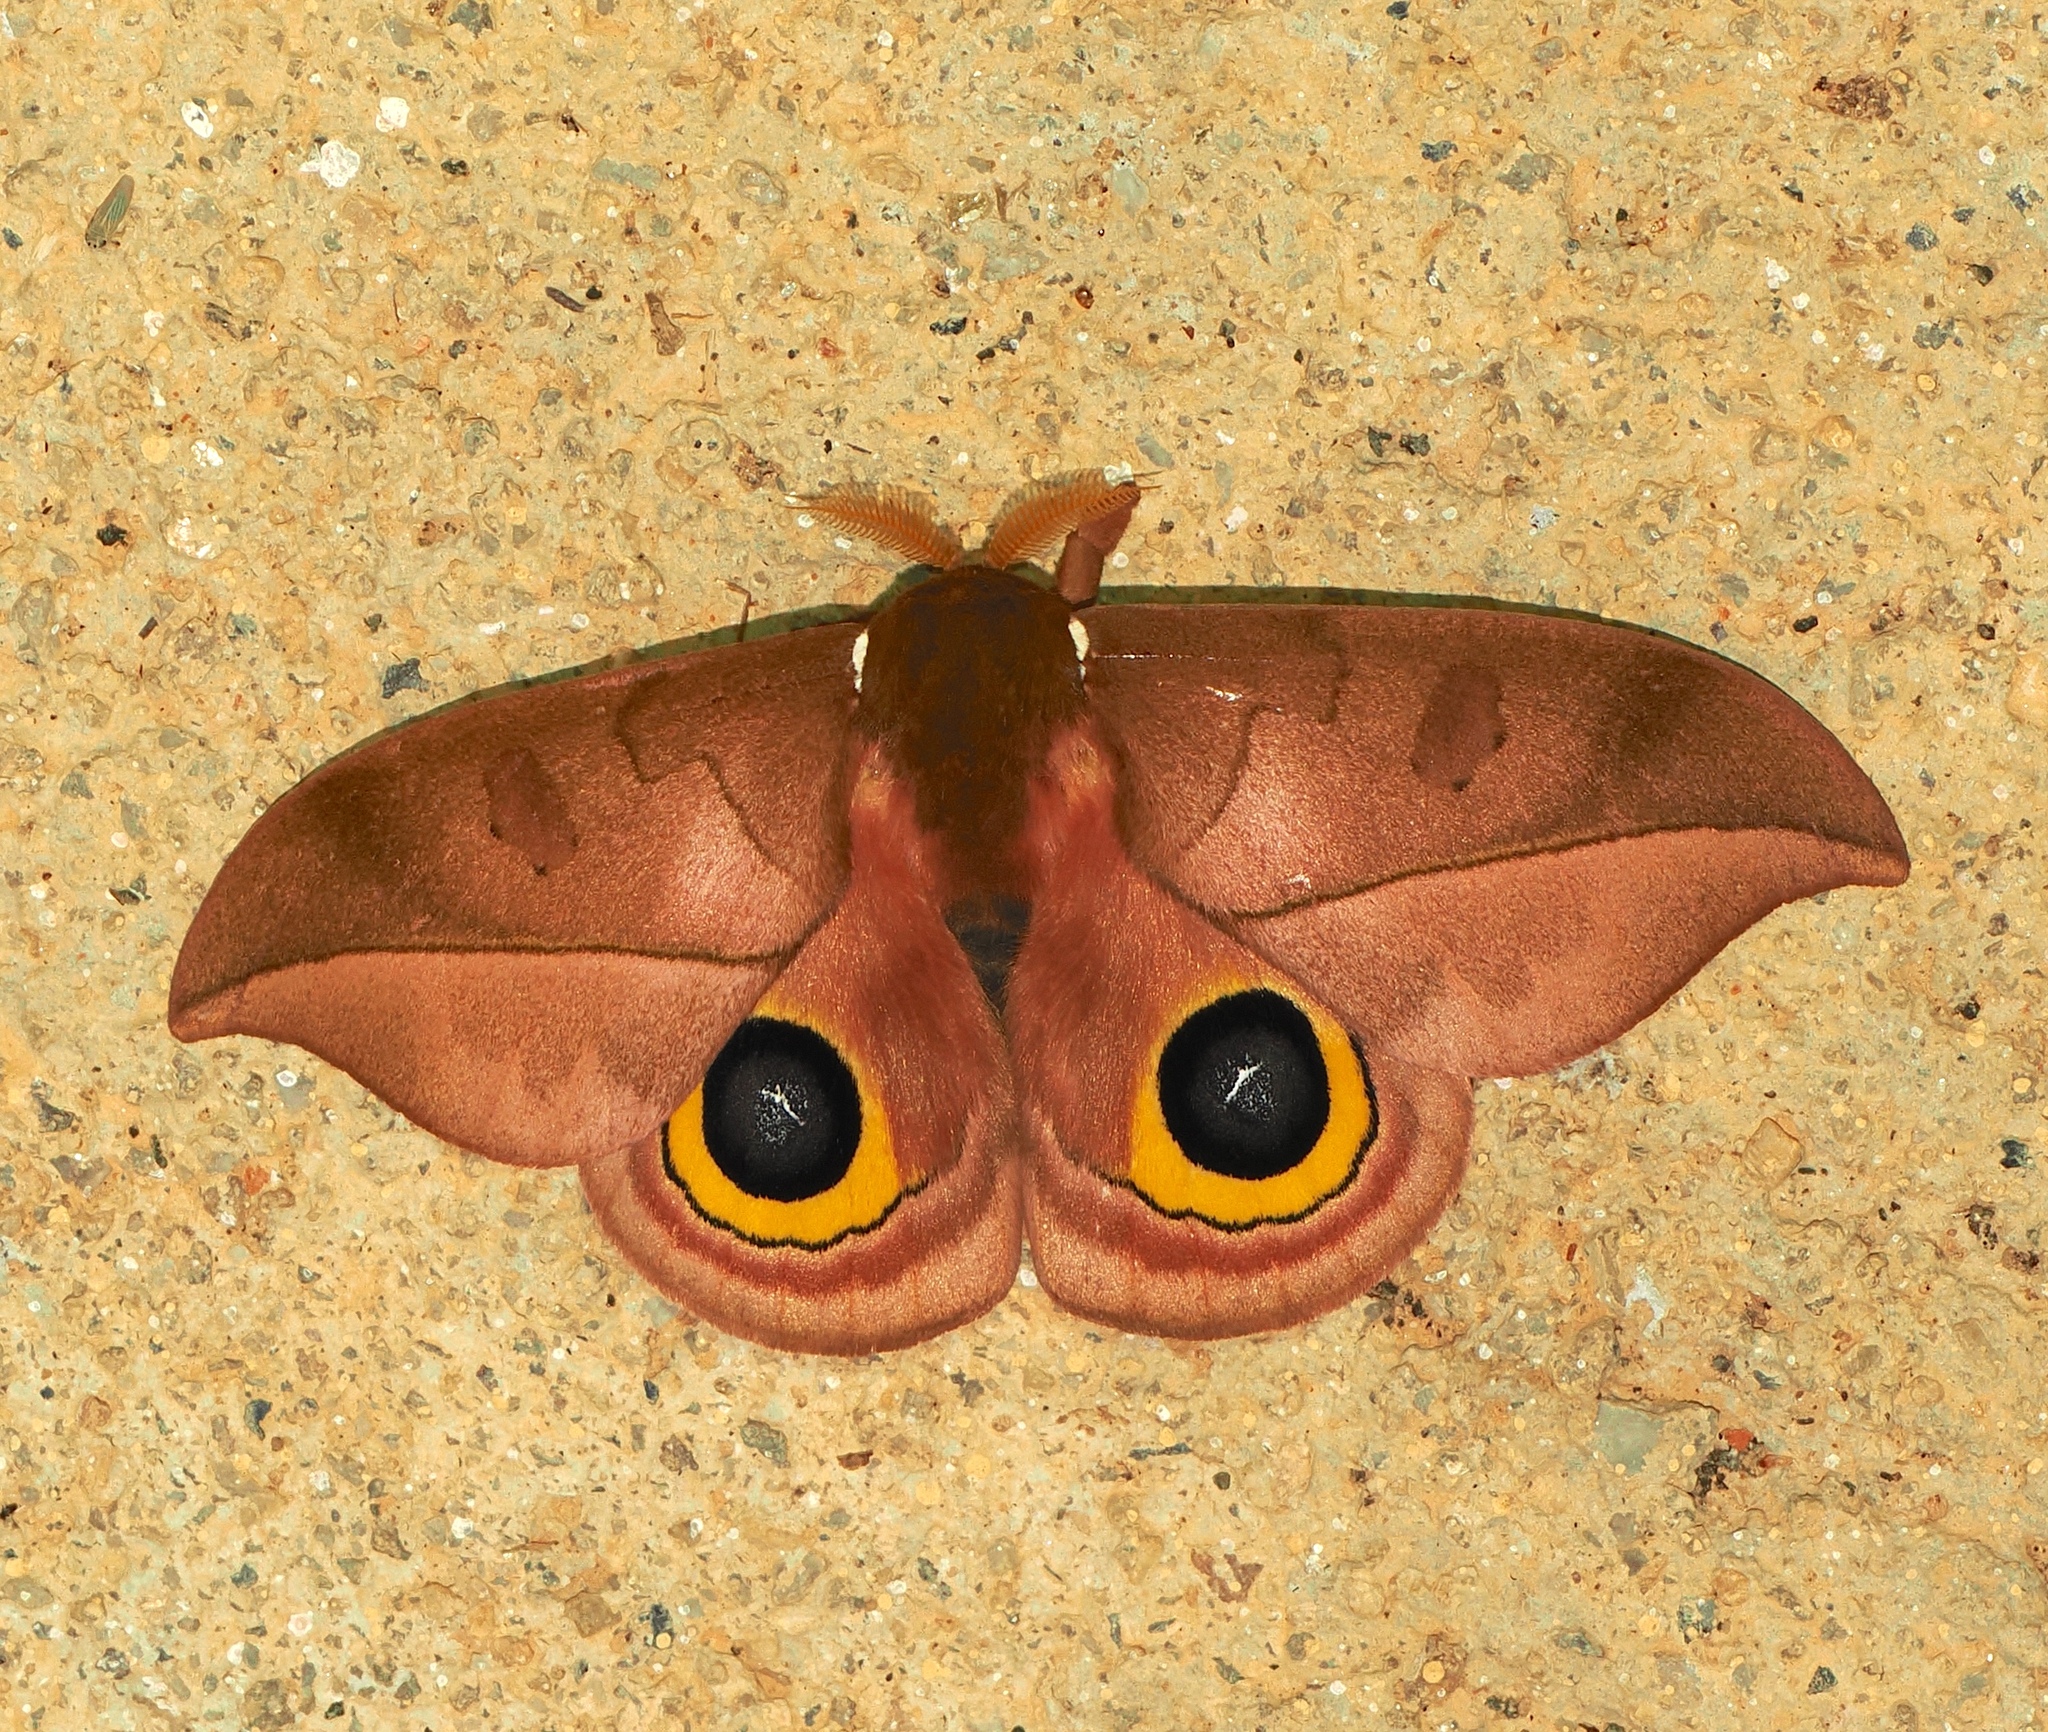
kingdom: Animalia
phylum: Arthropoda
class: Insecta
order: Lepidoptera
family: Saturniidae
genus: Automeris
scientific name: Automeris melanops
